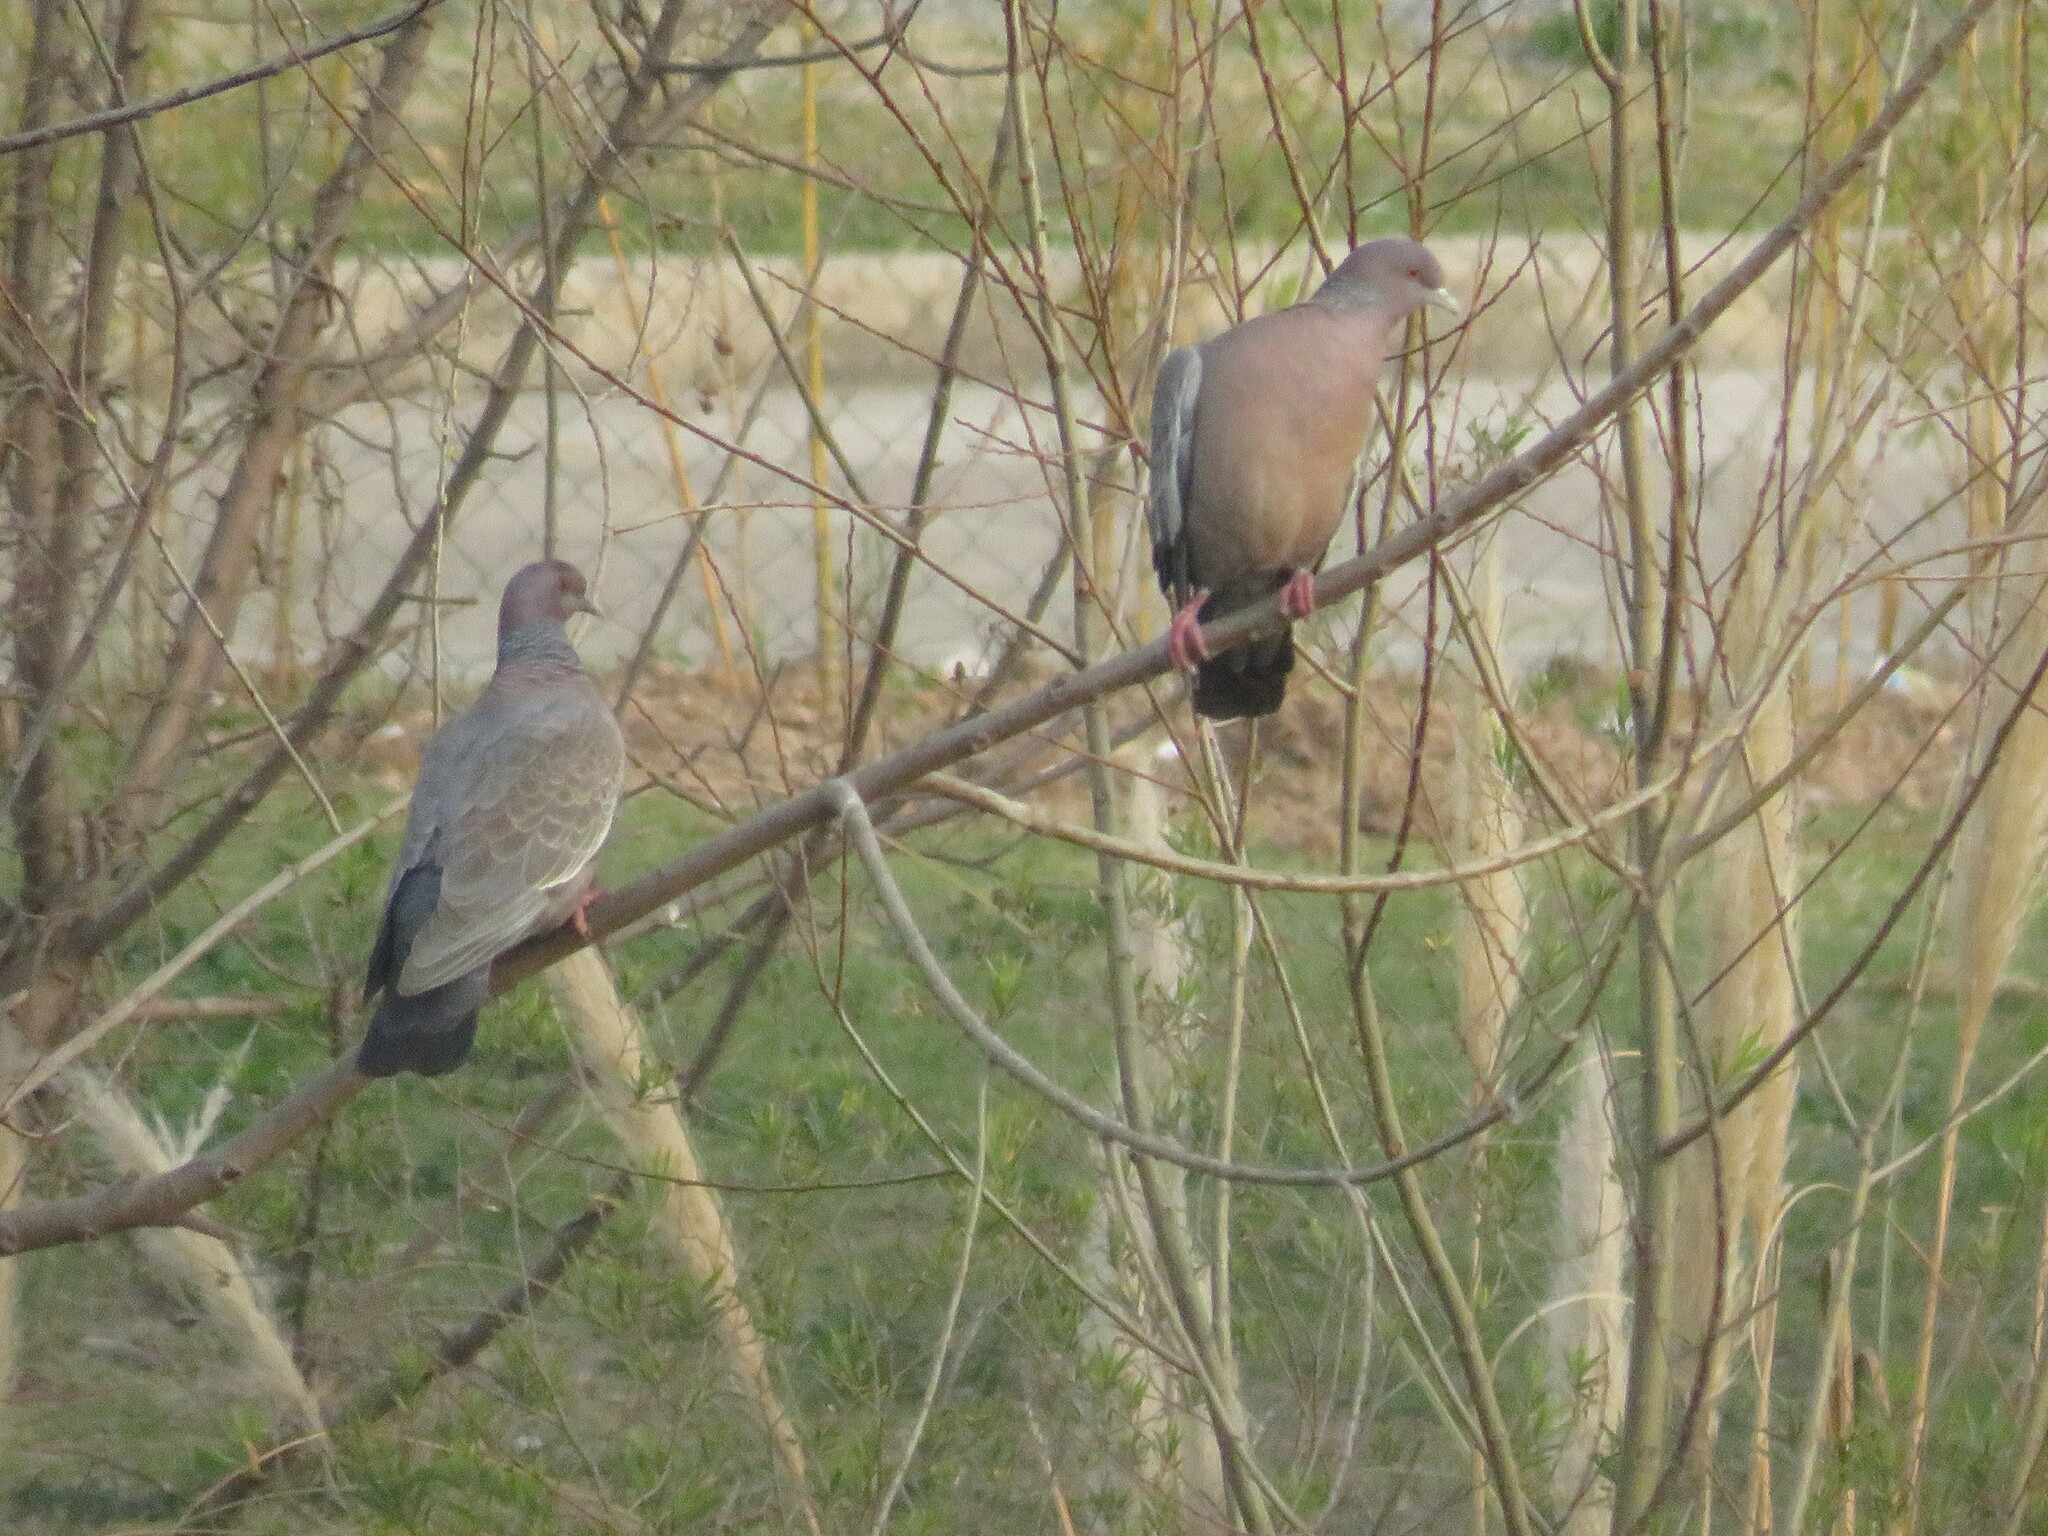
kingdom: Animalia
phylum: Chordata
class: Aves
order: Columbiformes
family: Columbidae
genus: Patagioenas
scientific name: Patagioenas picazuro
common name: Picazuro pigeon
